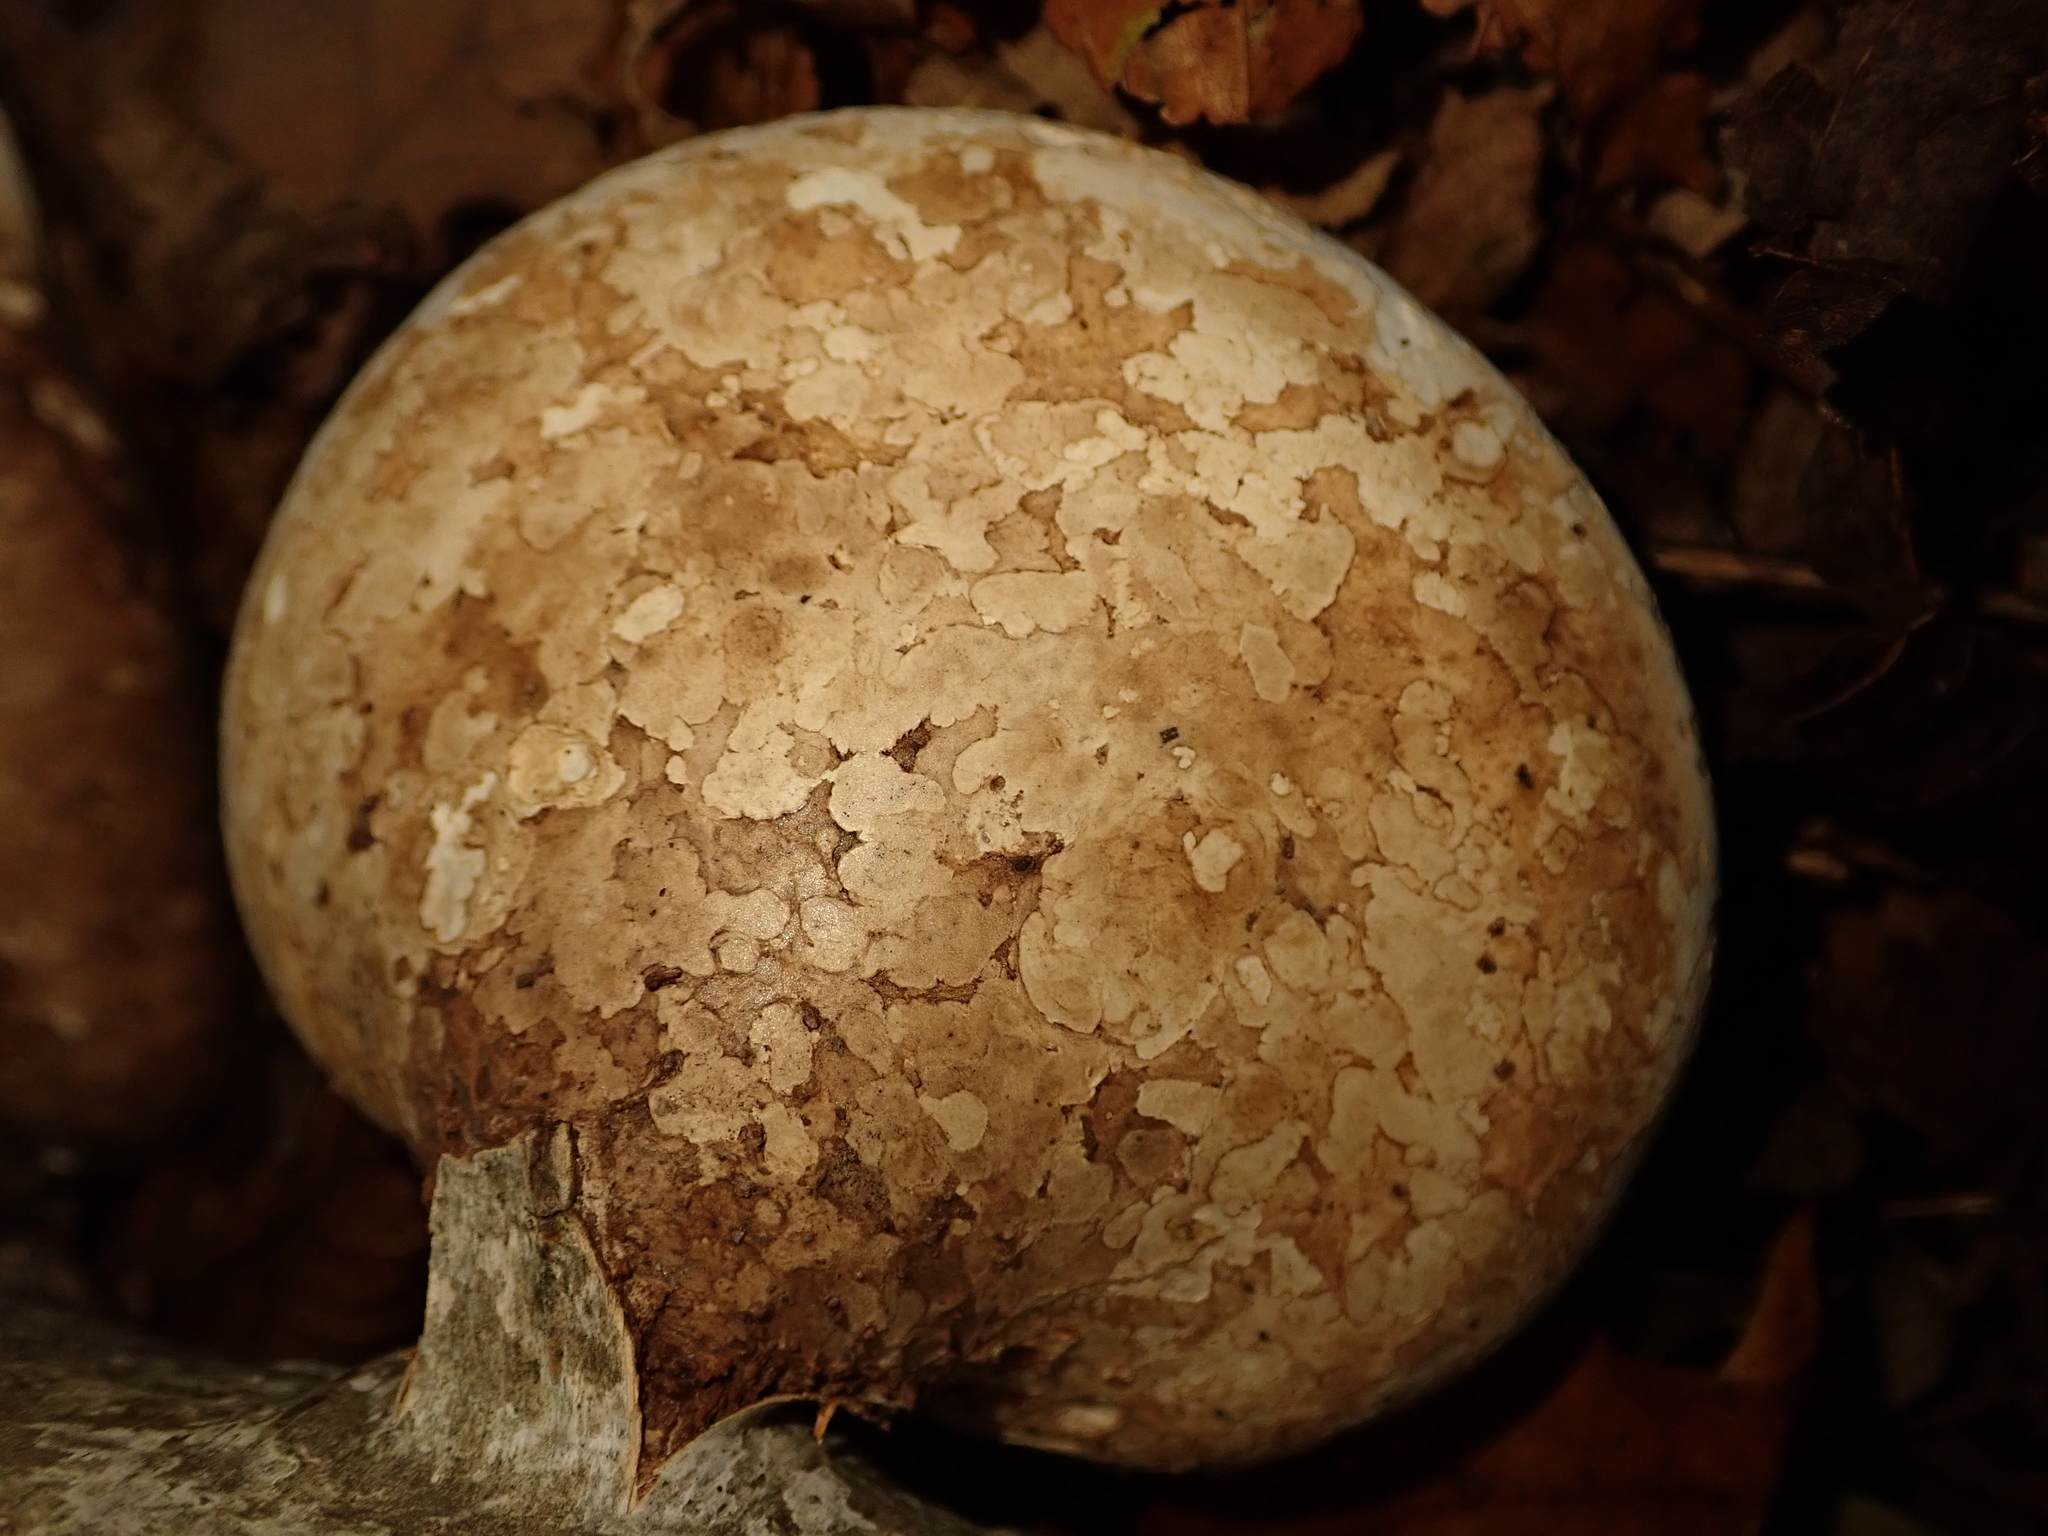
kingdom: Fungi
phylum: Basidiomycota
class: Agaricomycetes
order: Polyporales
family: Fomitopsidaceae
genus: Fomitopsis
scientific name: Fomitopsis betulina
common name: Birch polypore
